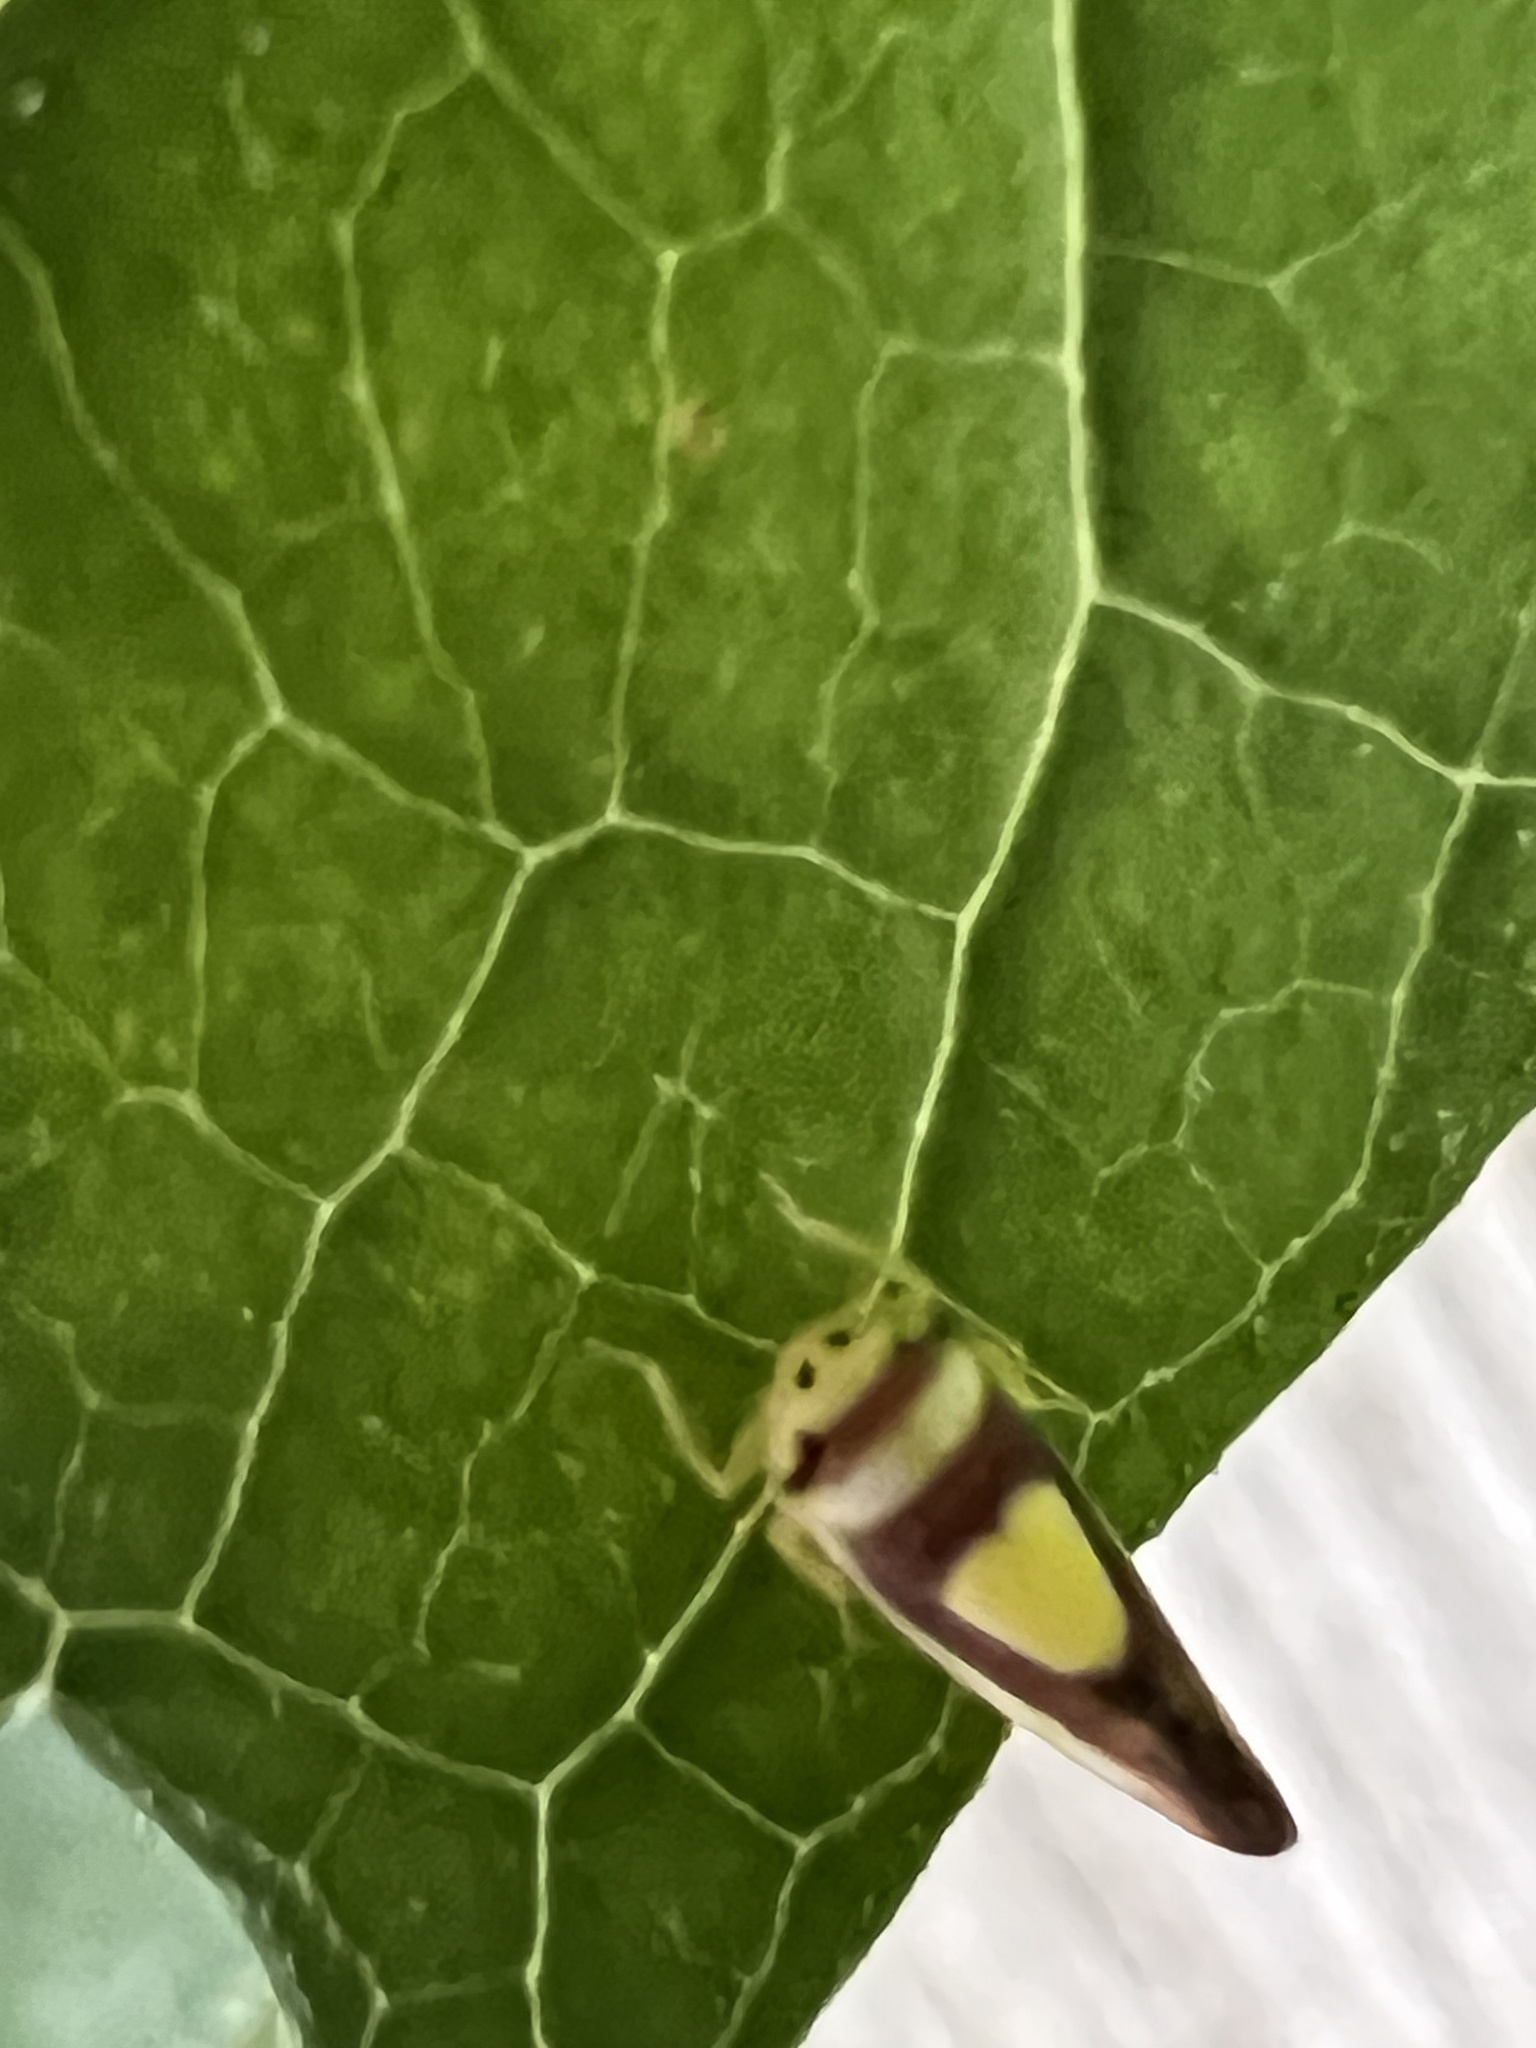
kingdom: Animalia
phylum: Arthropoda
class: Insecta
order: Hemiptera
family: Cicadellidae
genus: Colladonus
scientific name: Colladonus clitellarius
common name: The saddleback leafhopper
